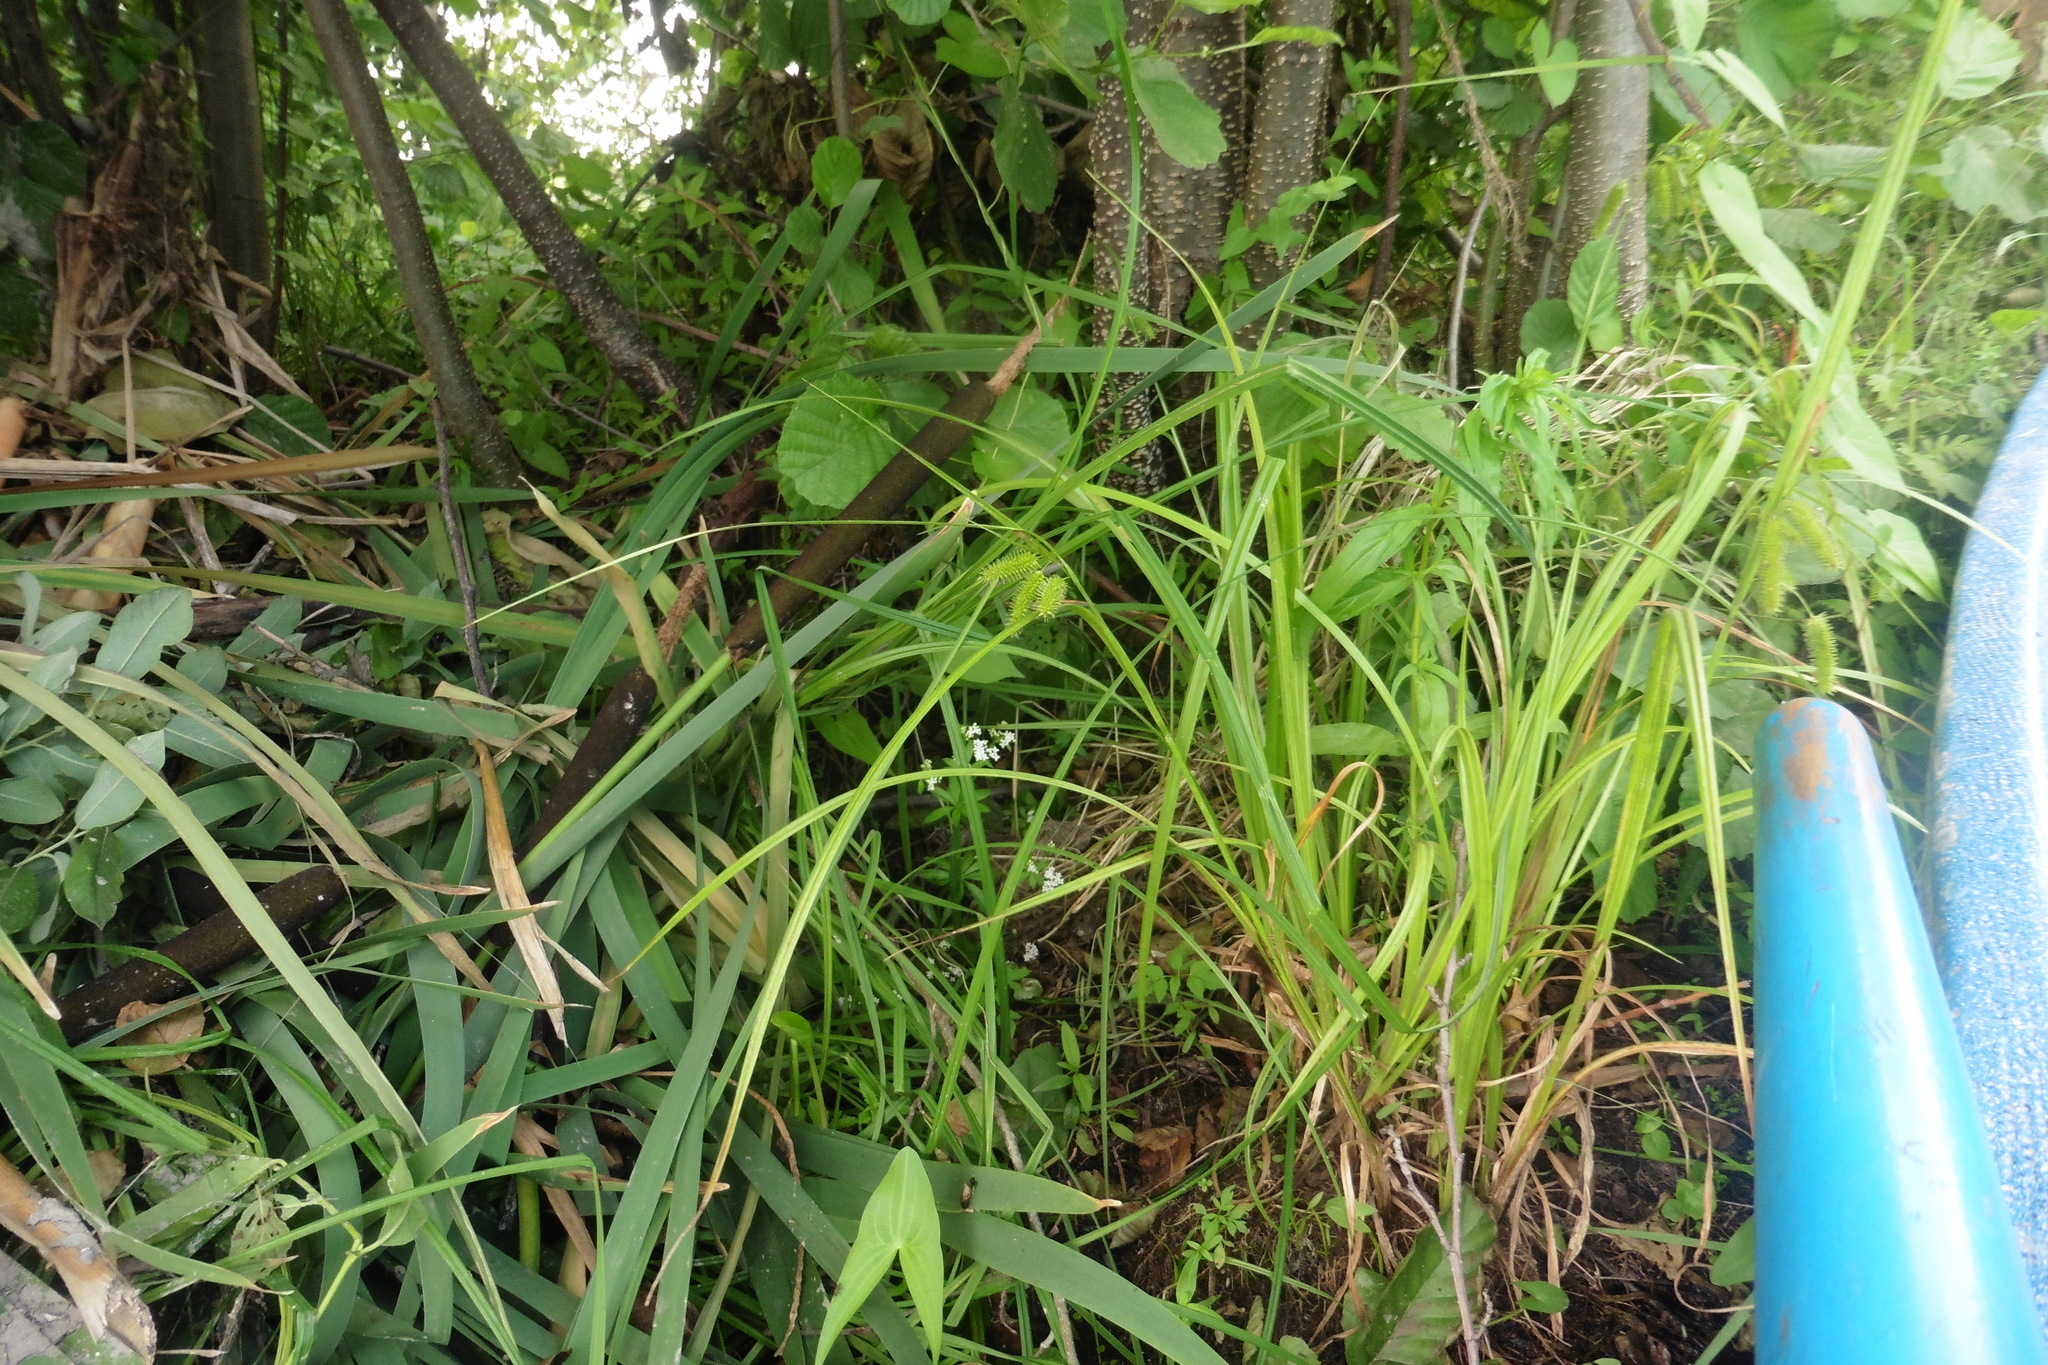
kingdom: Plantae
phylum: Tracheophyta
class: Liliopsida
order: Poales
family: Cyperaceae
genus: Carex
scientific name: Carex pseudocyperus
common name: Cyperus sedge
